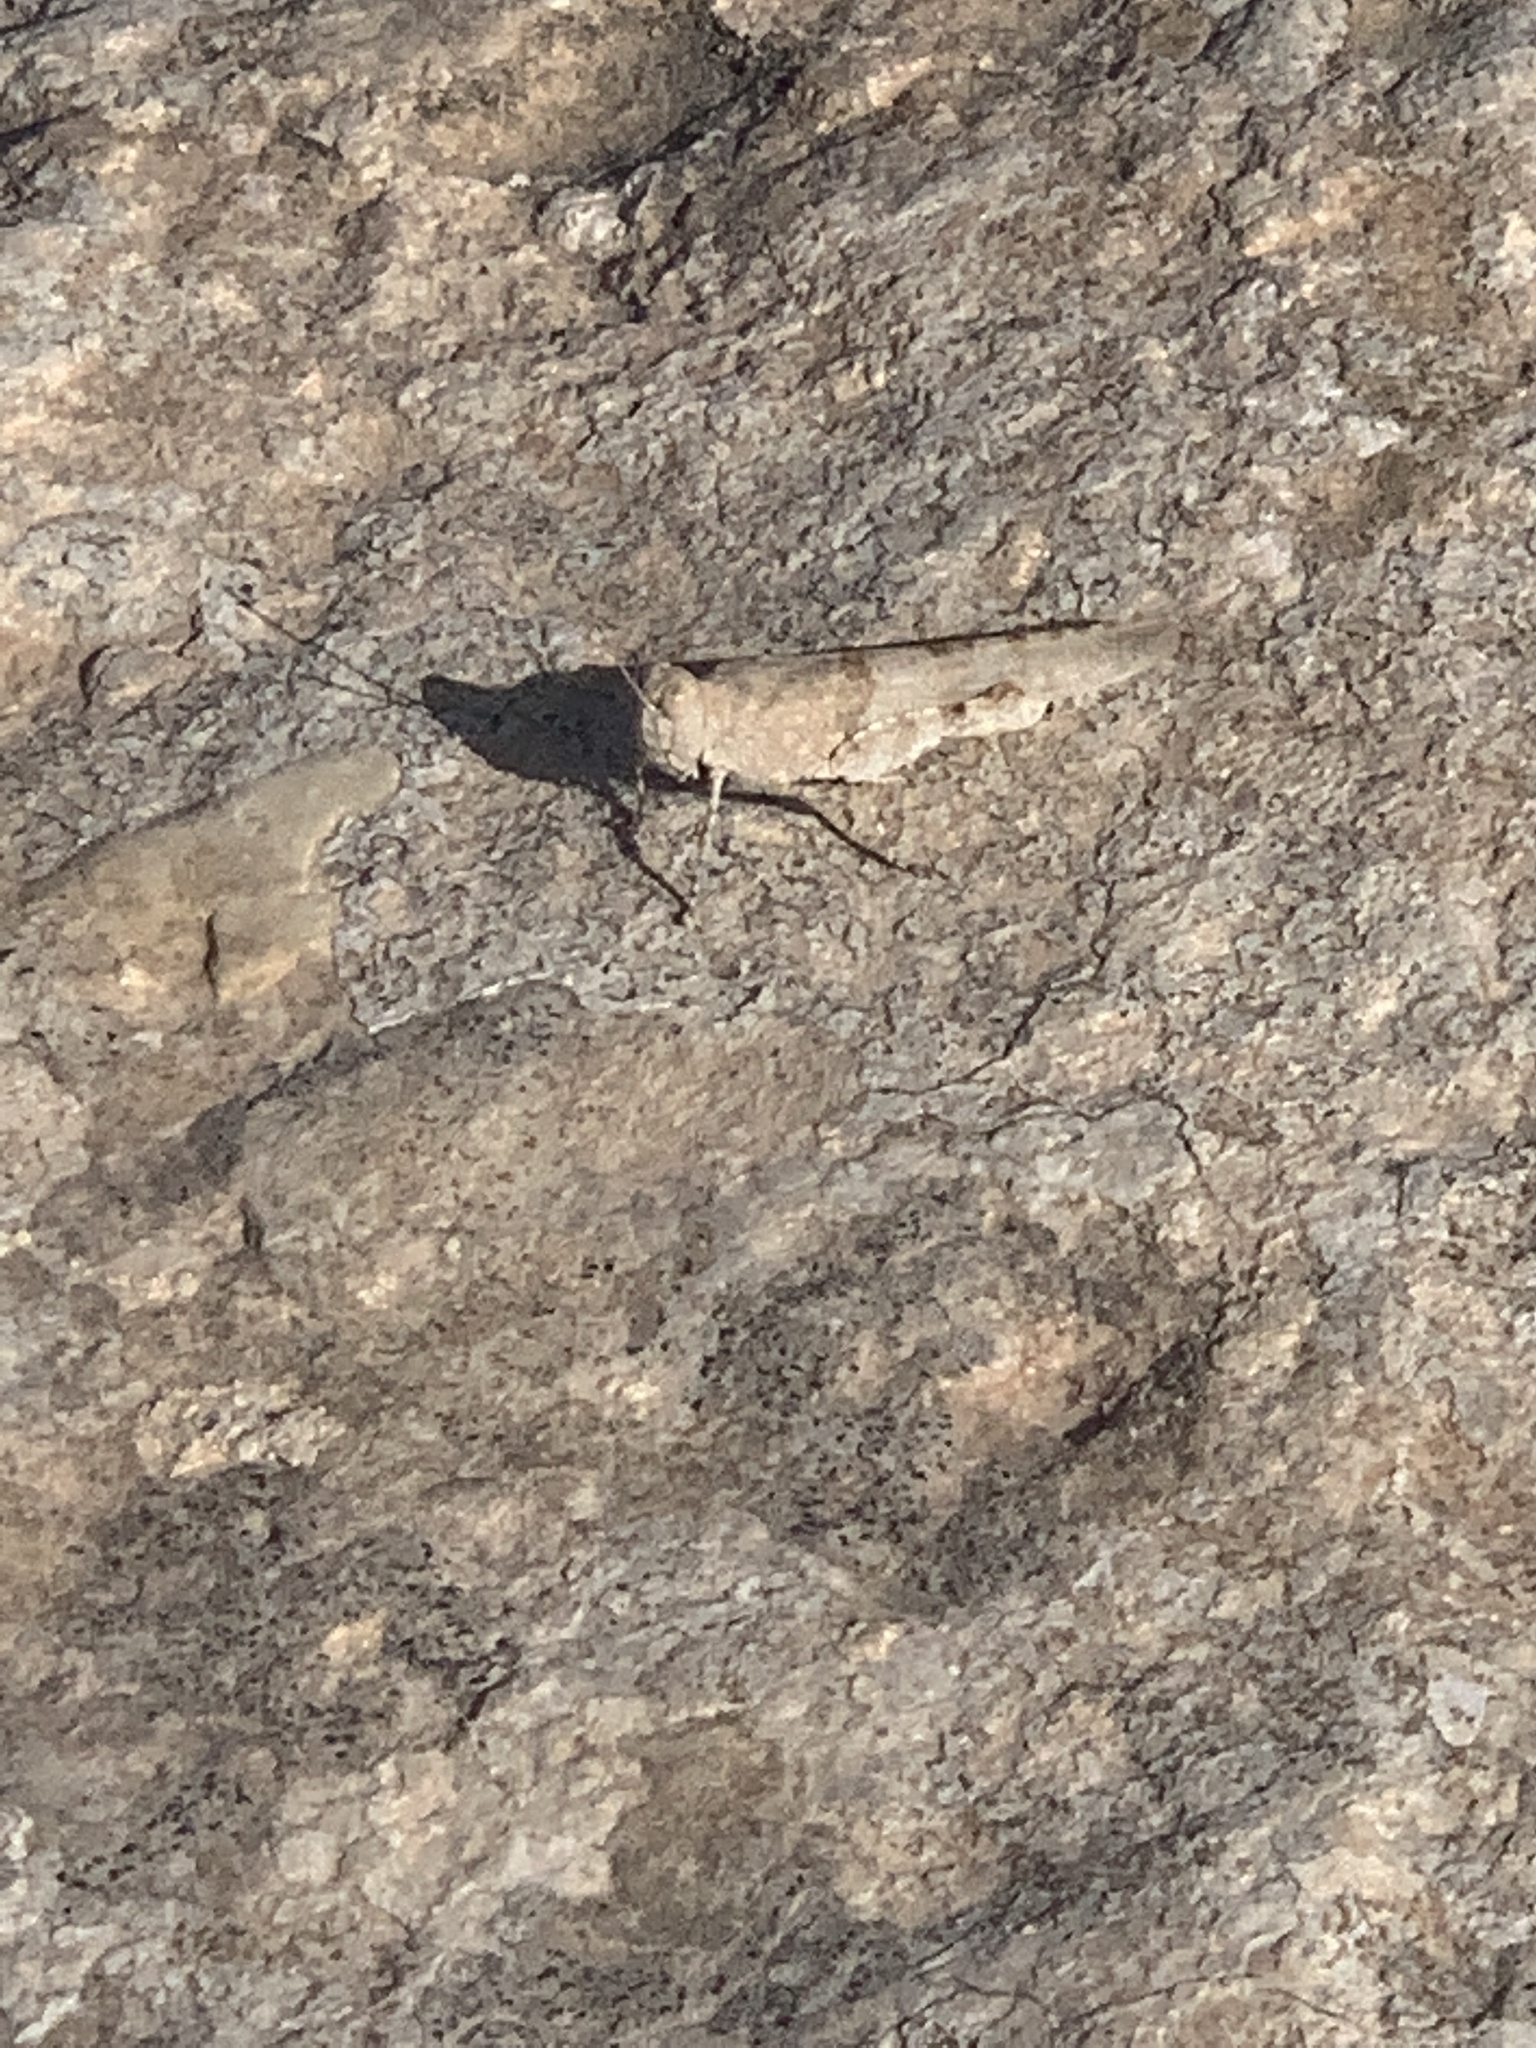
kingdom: Animalia
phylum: Arthropoda
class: Insecta
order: Orthoptera
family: Acrididae
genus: Sphingonotus
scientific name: Sphingonotus caerulans
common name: Blue-winged locust
